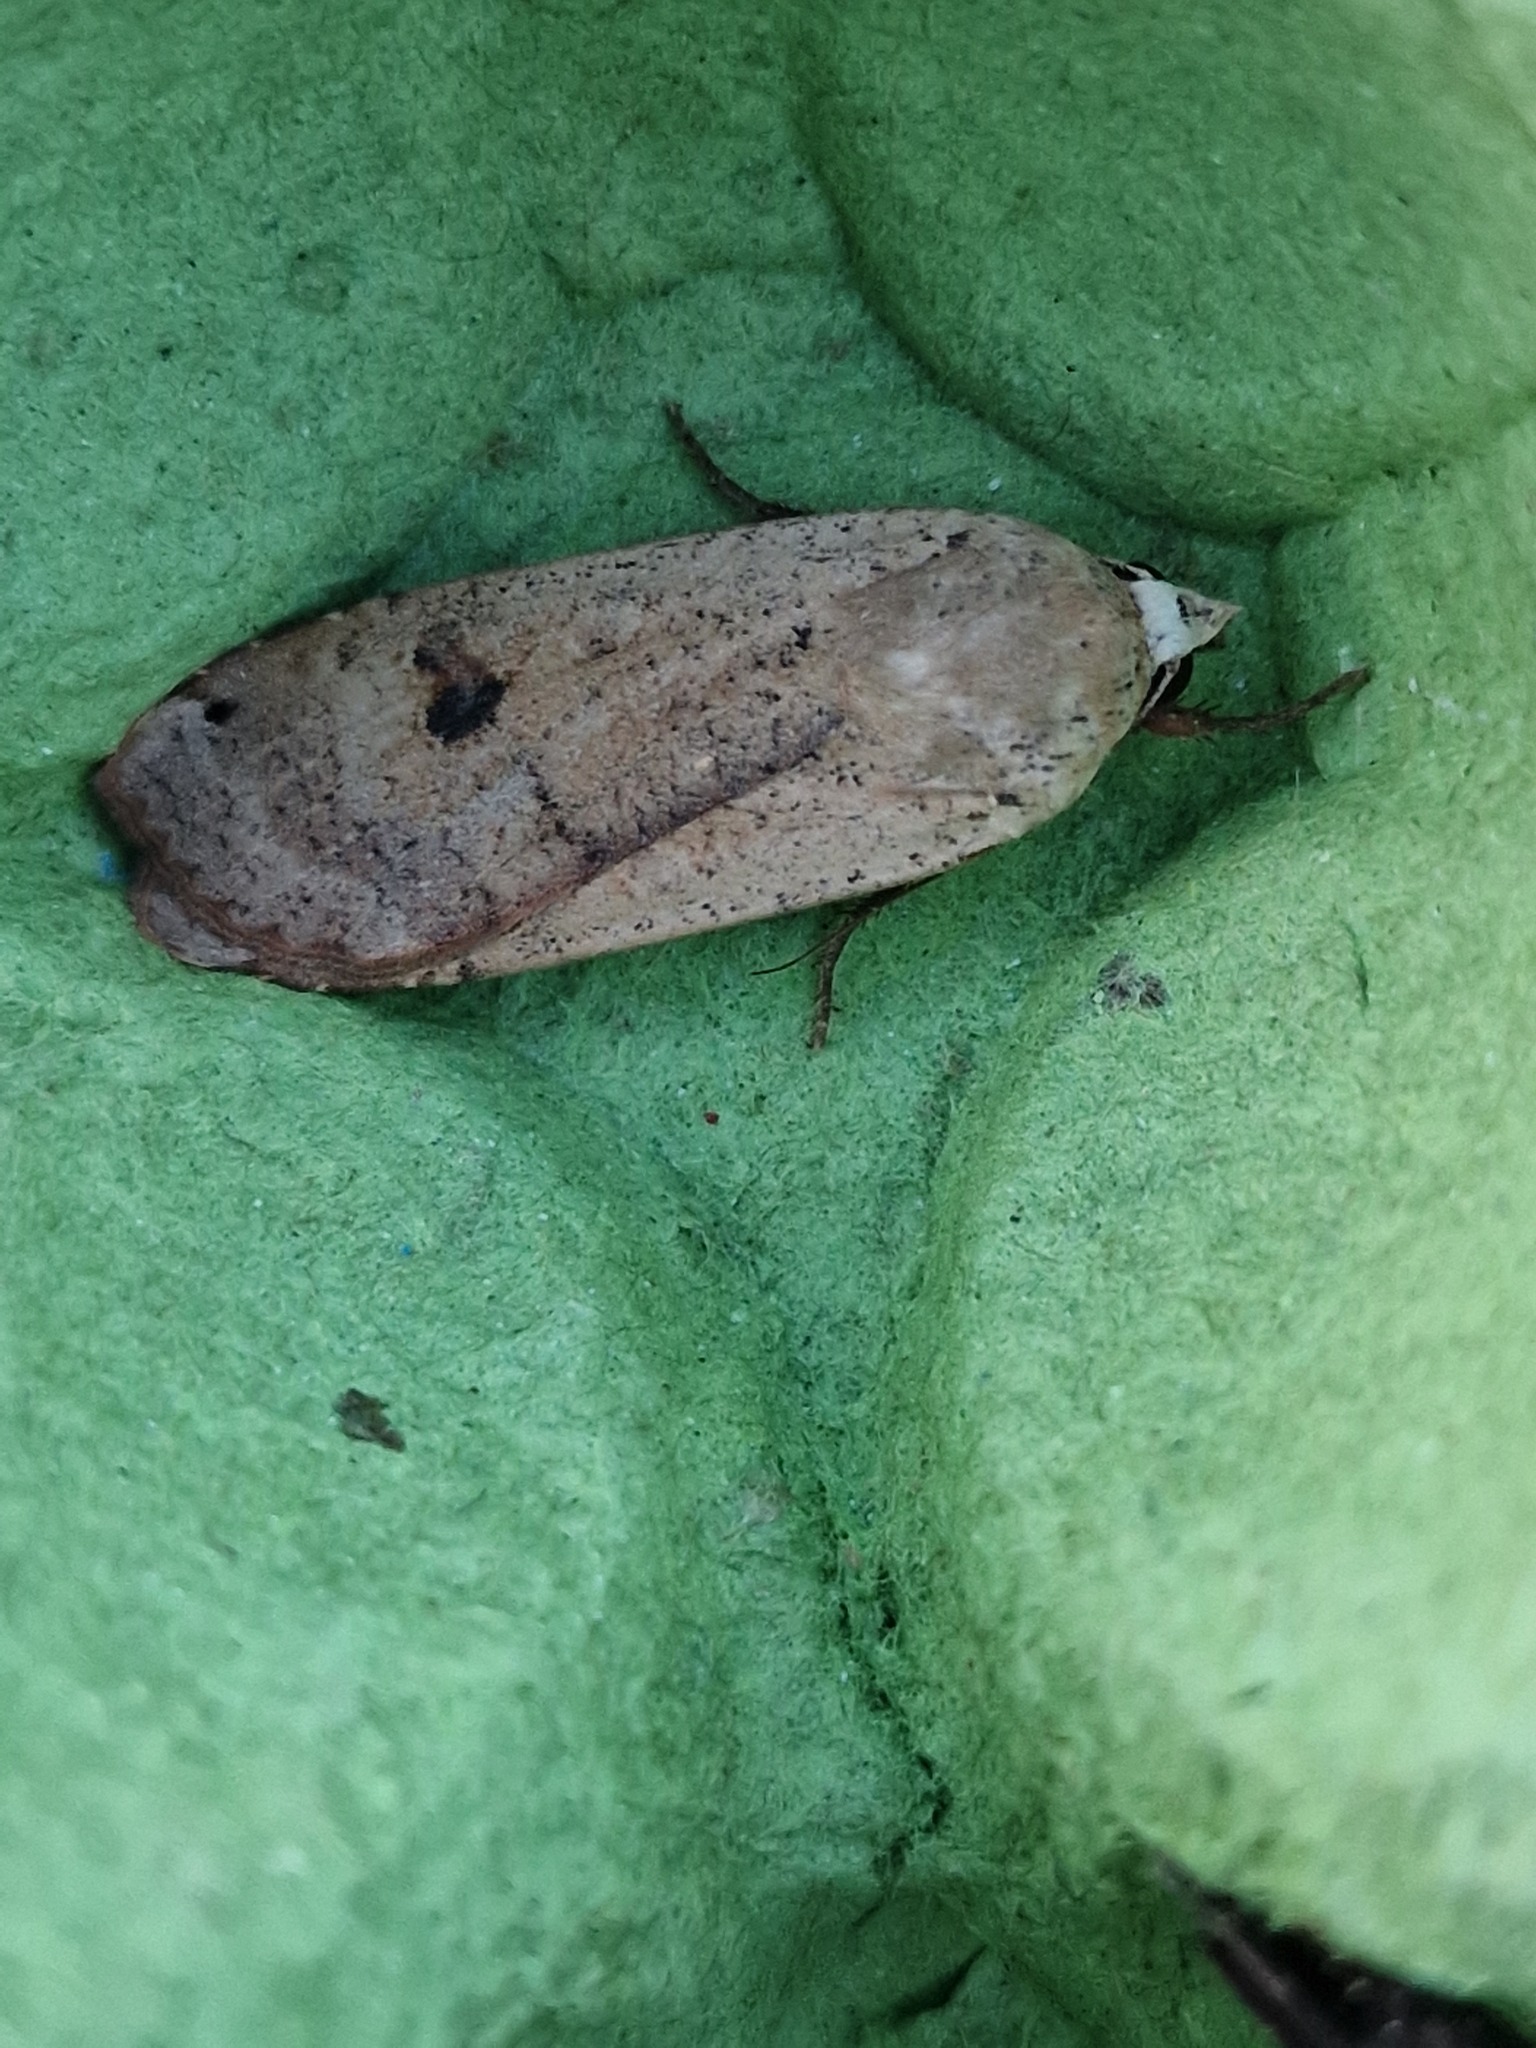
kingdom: Animalia
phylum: Arthropoda
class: Insecta
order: Lepidoptera
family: Noctuidae
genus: Noctua
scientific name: Noctua pronuba
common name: Large yellow underwing
